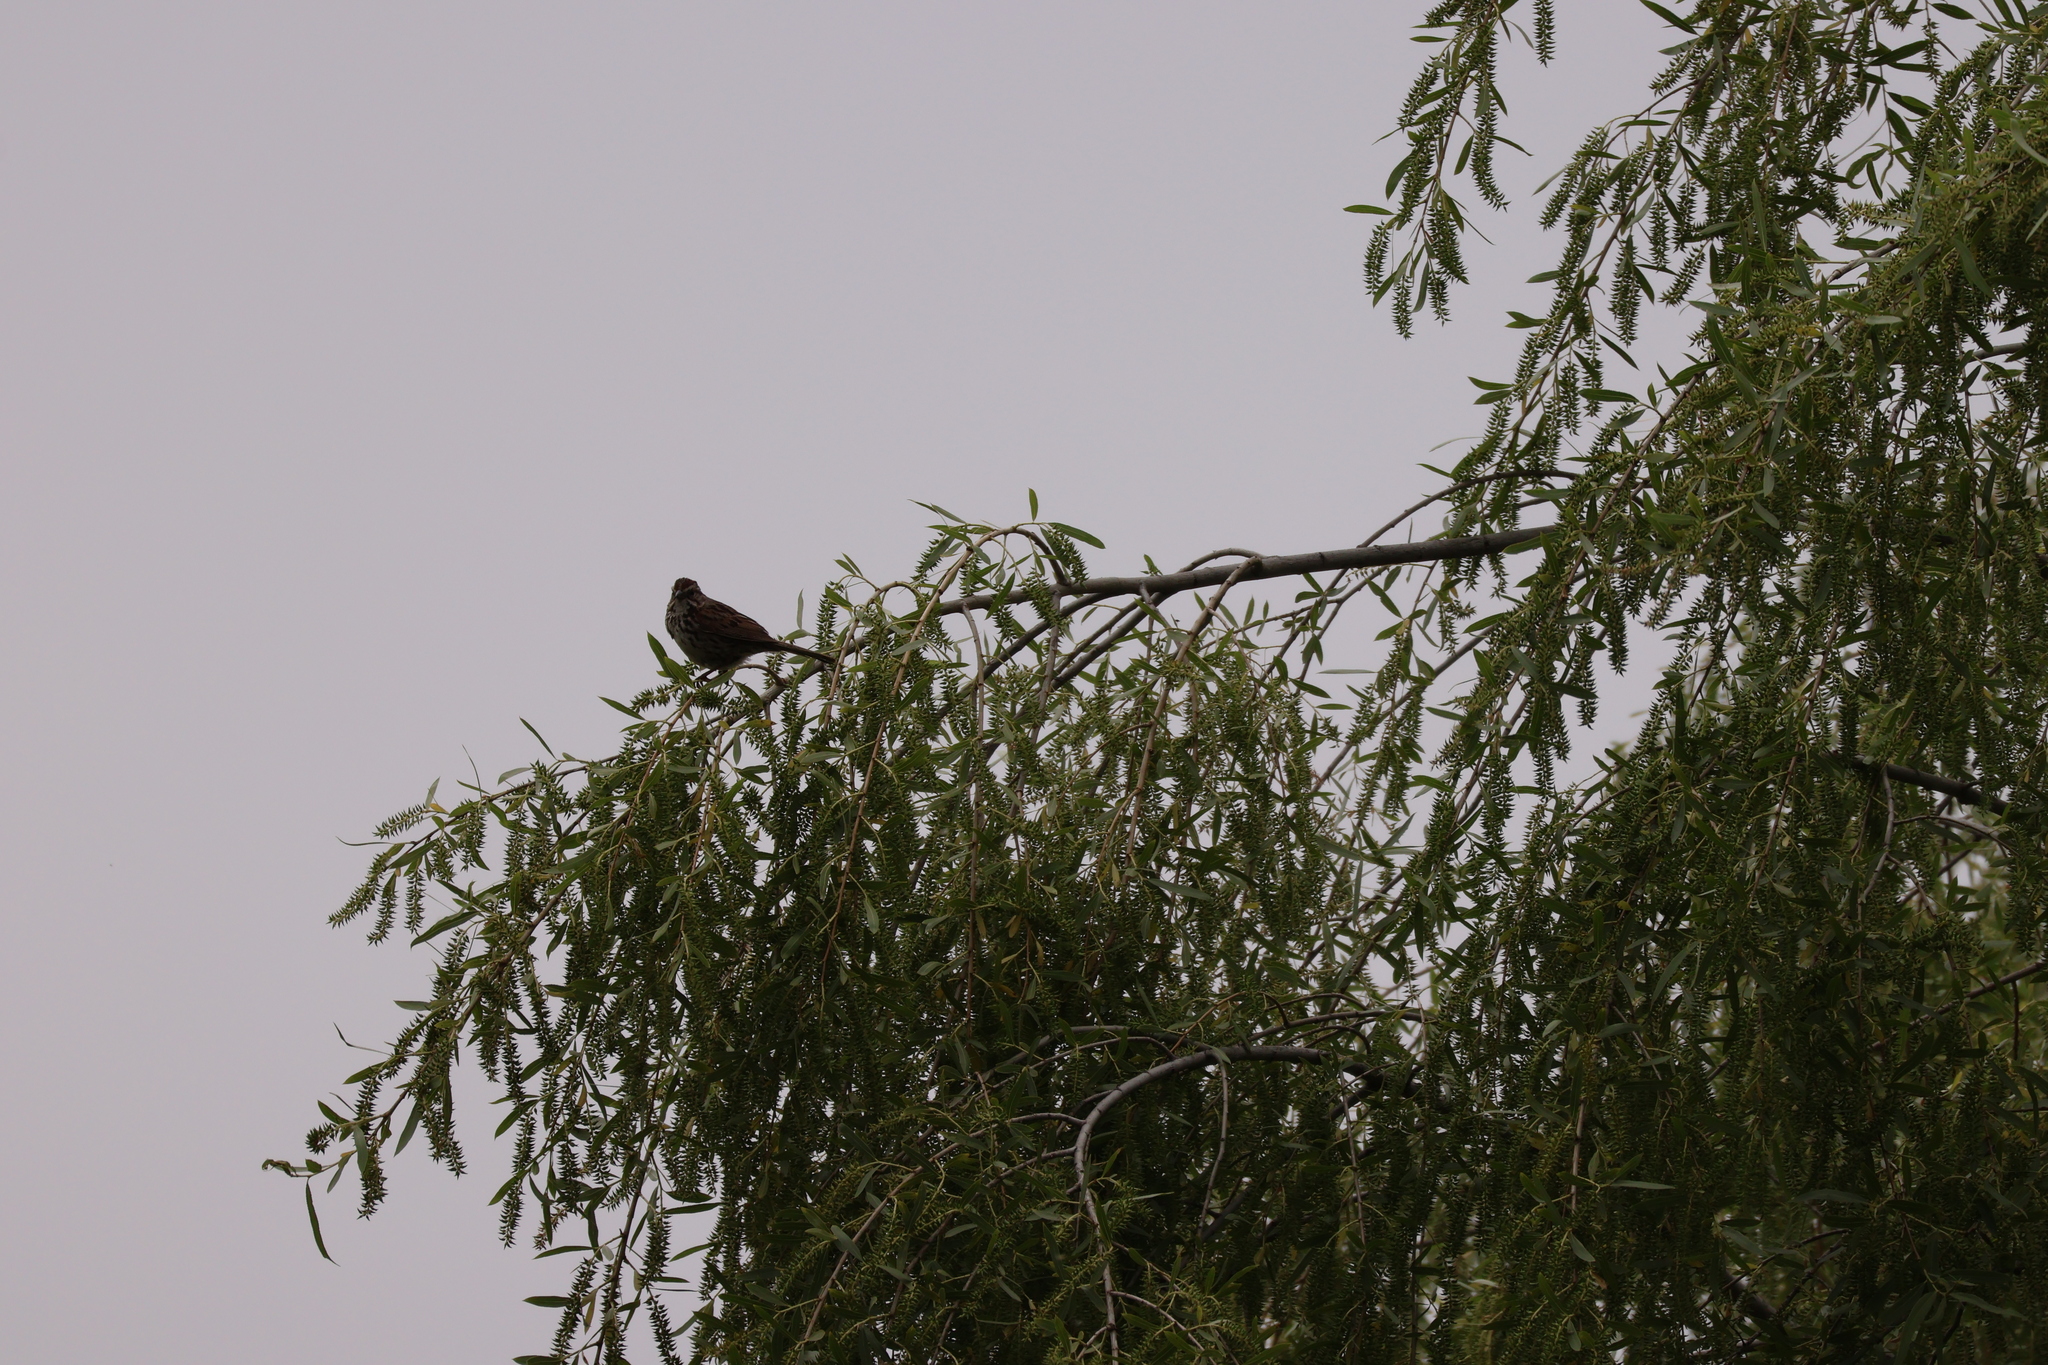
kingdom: Animalia
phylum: Chordata
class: Aves
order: Passeriformes
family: Passerellidae
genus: Melospiza
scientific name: Melospiza melodia
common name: Song sparrow
